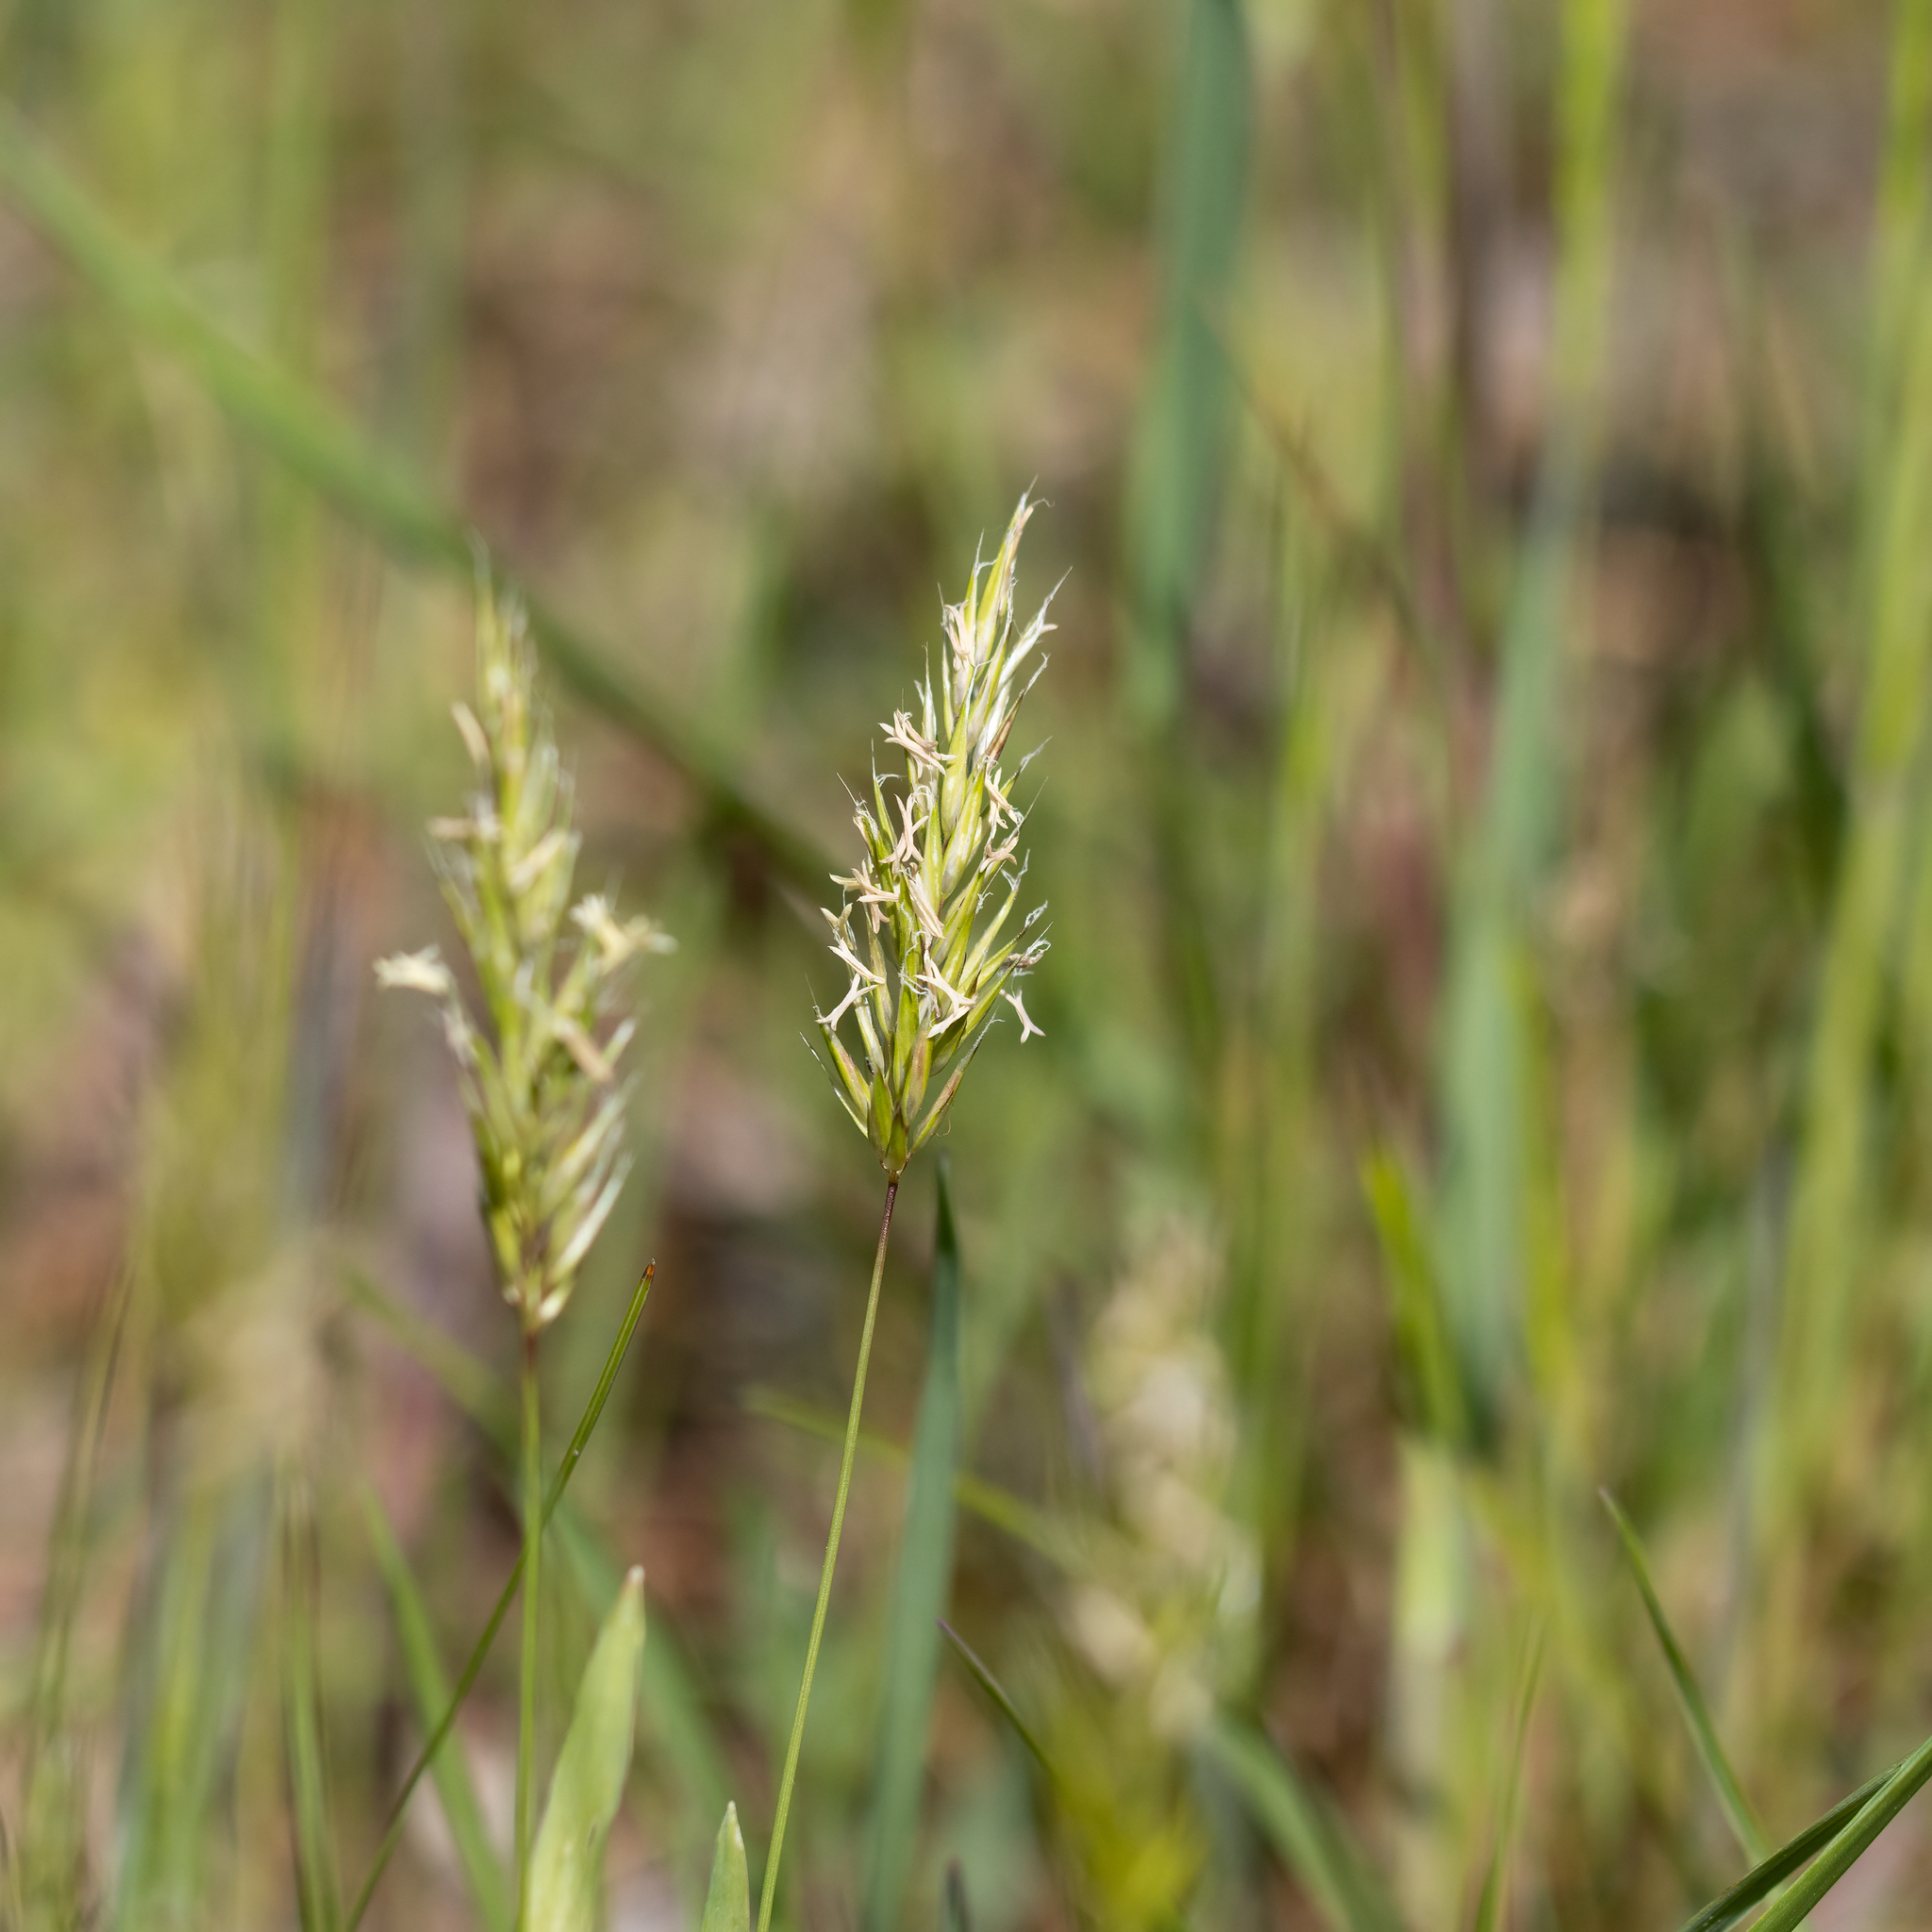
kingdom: Plantae
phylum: Tracheophyta
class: Liliopsida
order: Poales
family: Poaceae
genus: Anthoxanthum
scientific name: Anthoxanthum odoratum
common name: Sweet vernalgrass
